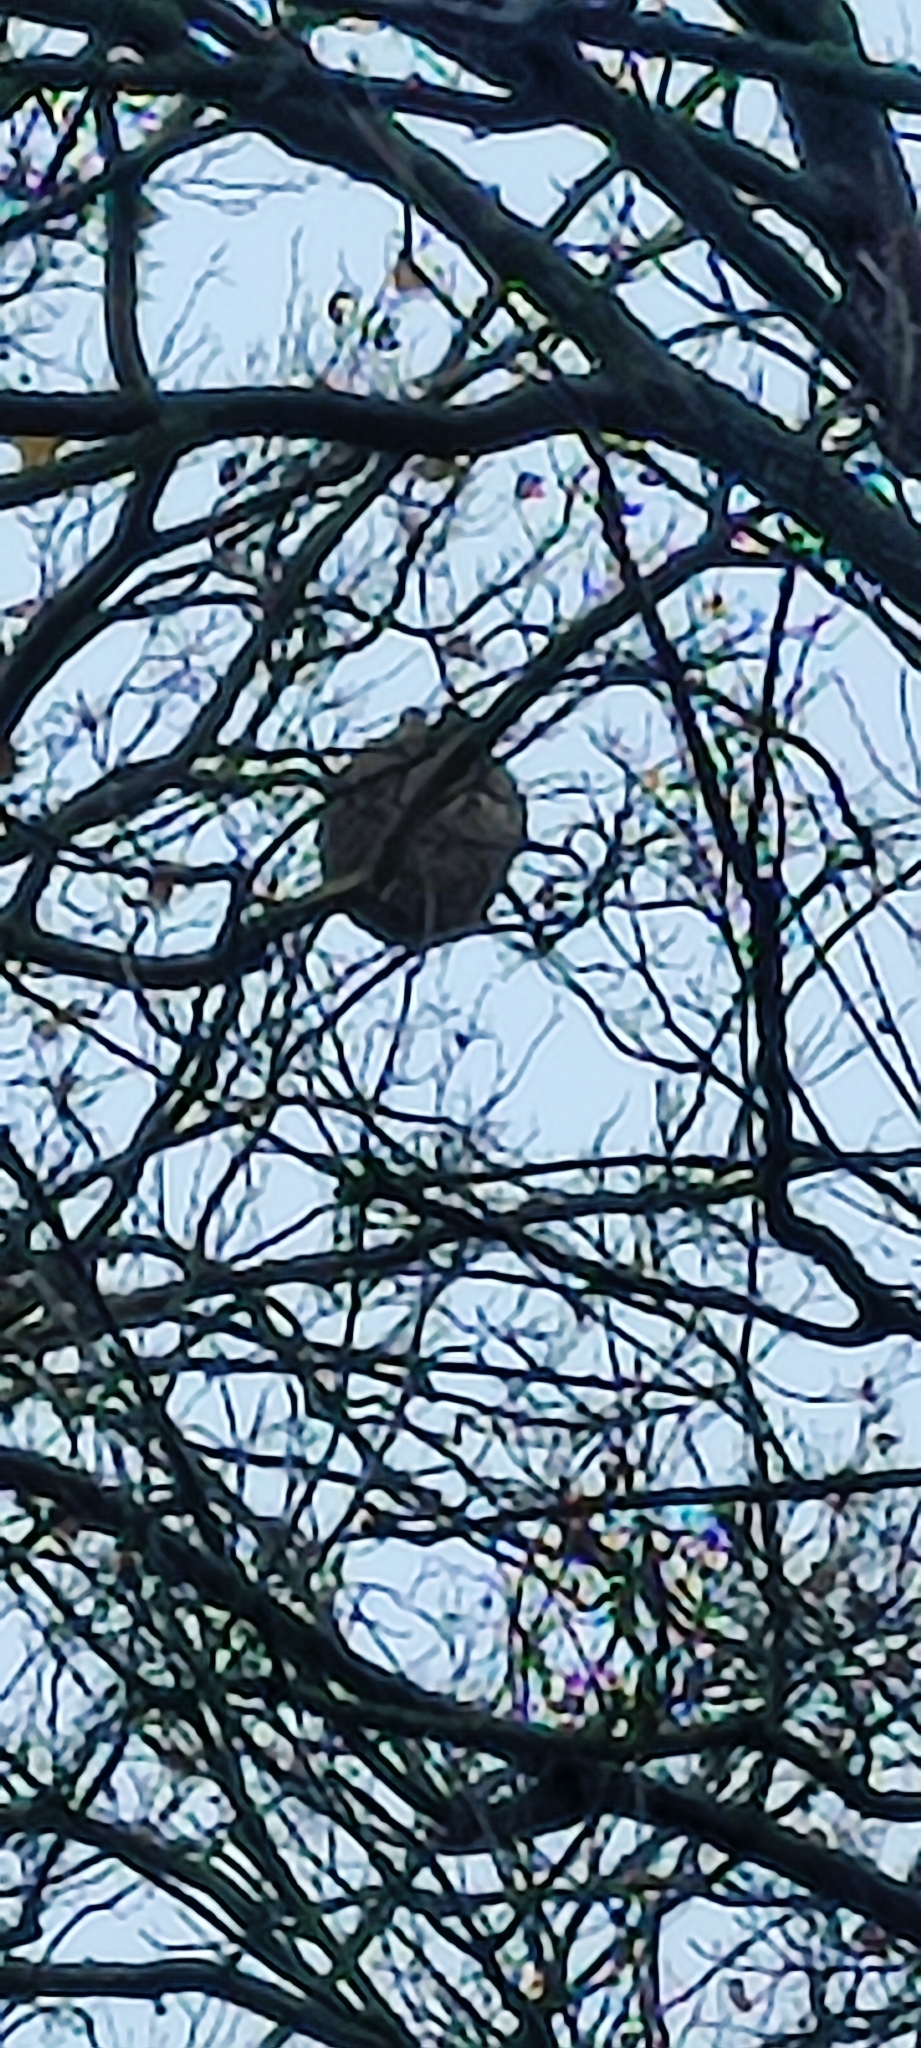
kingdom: Animalia
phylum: Arthropoda
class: Insecta
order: Hymenoptera
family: Vespidae
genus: Vespa
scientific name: Vespa velutina
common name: Asian hornet
